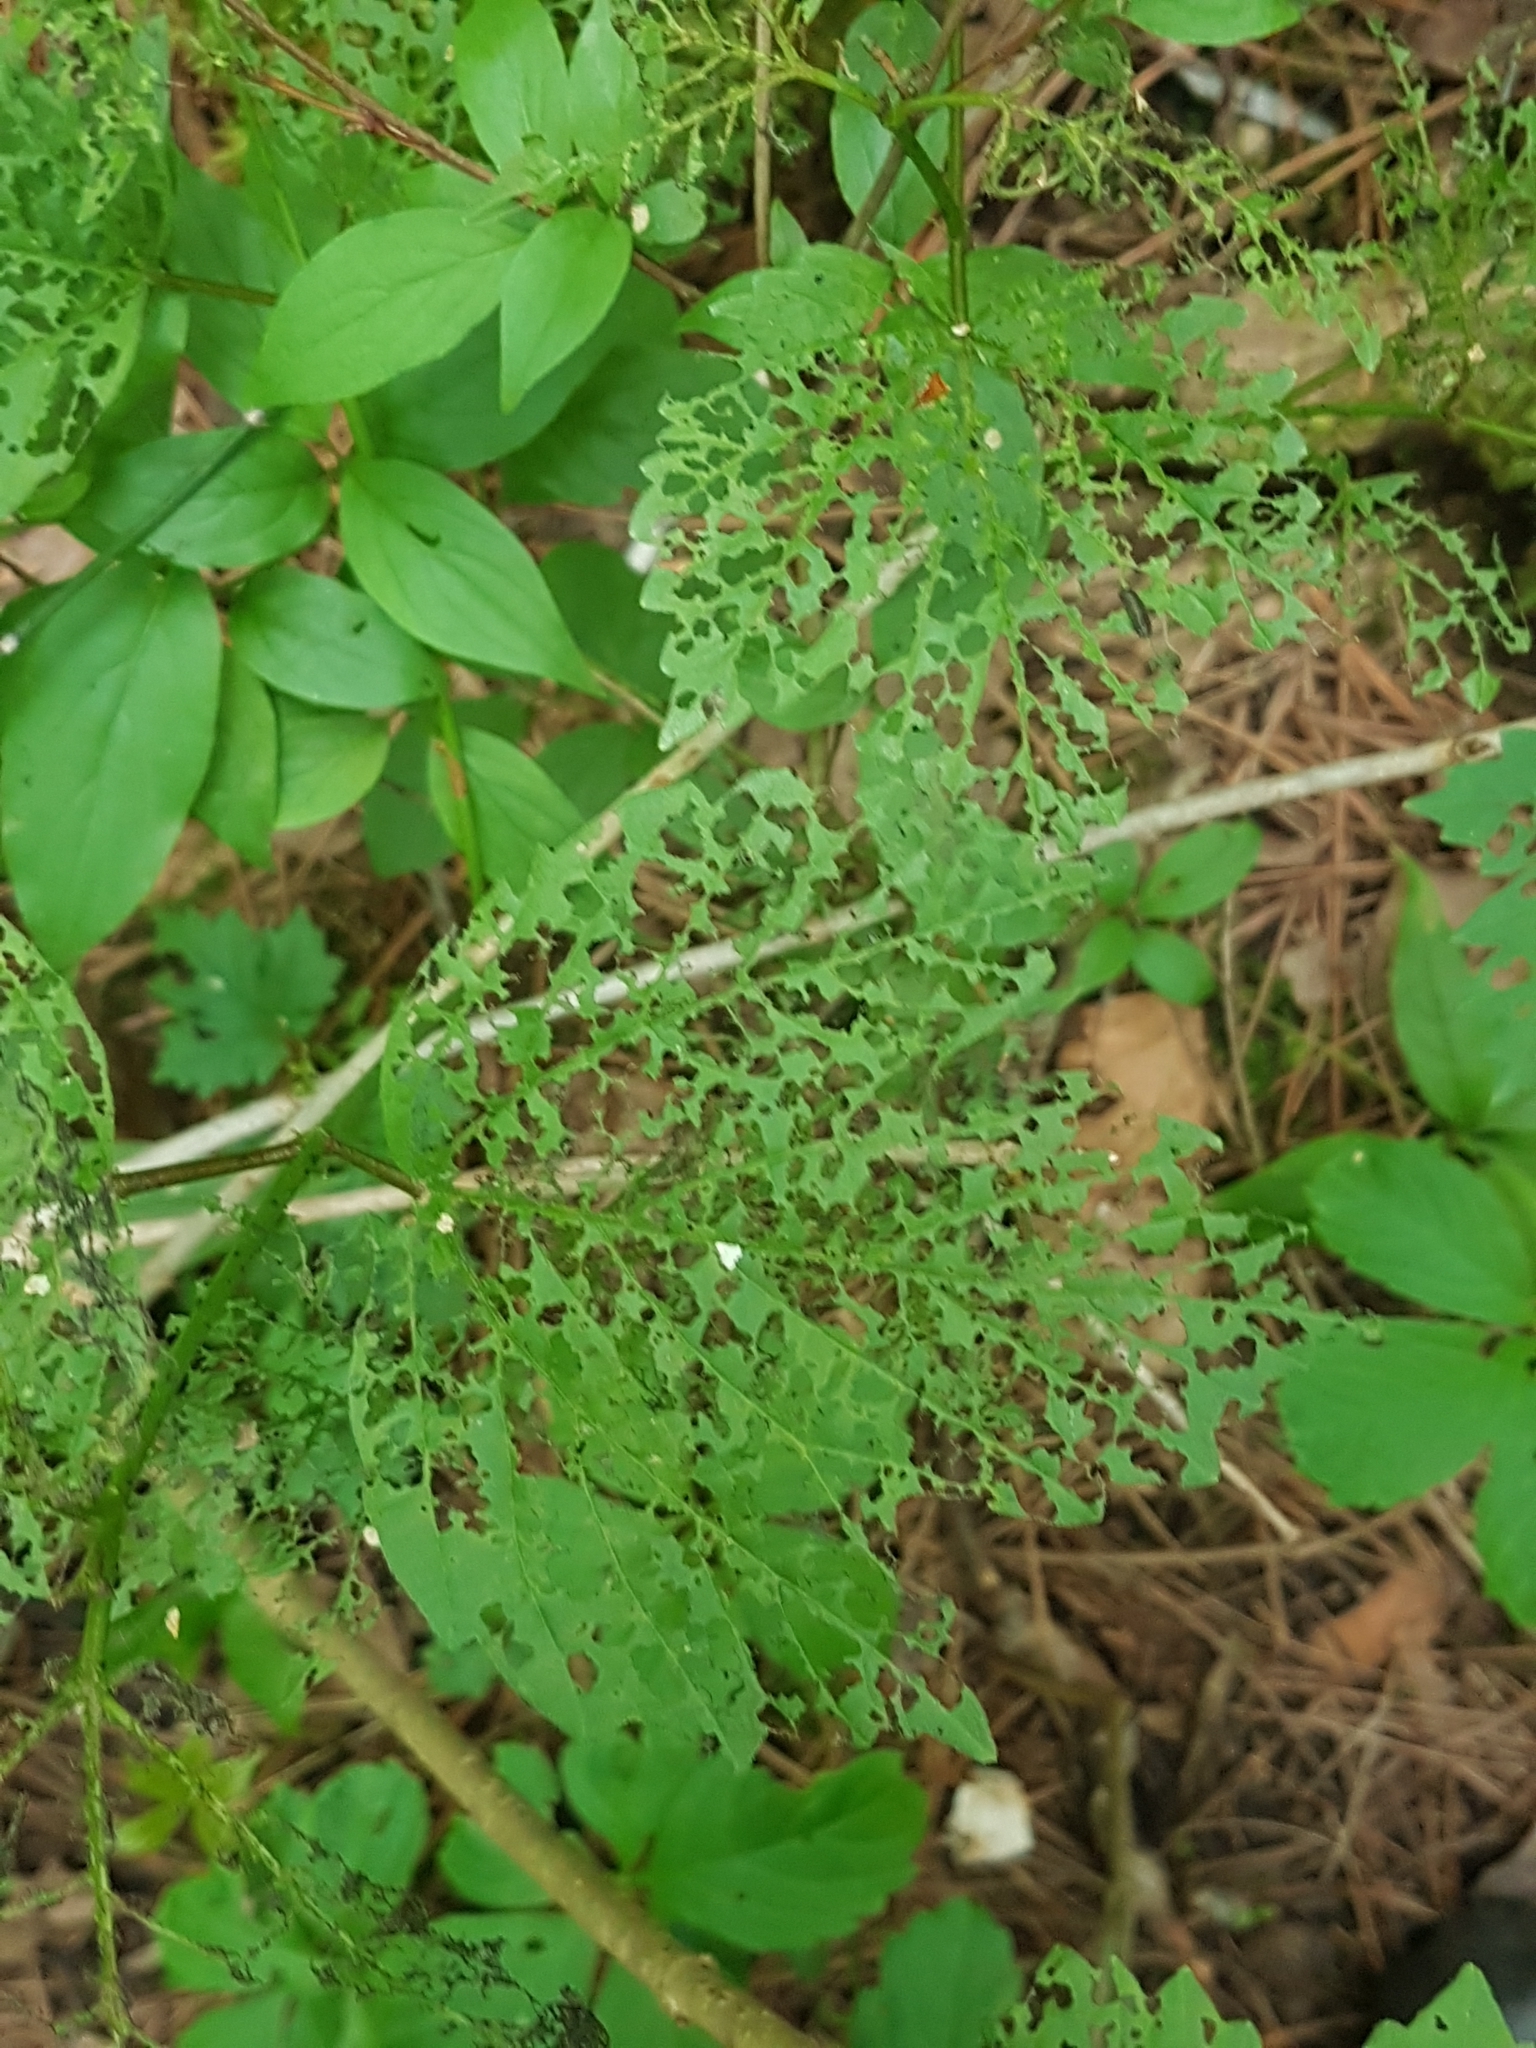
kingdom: Plantae
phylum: Tracheophyta
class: Magnoliopsida
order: Dipsacales
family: Viburnaceae
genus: Viburnum
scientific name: Viburnum opulus
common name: Guelder-rose
